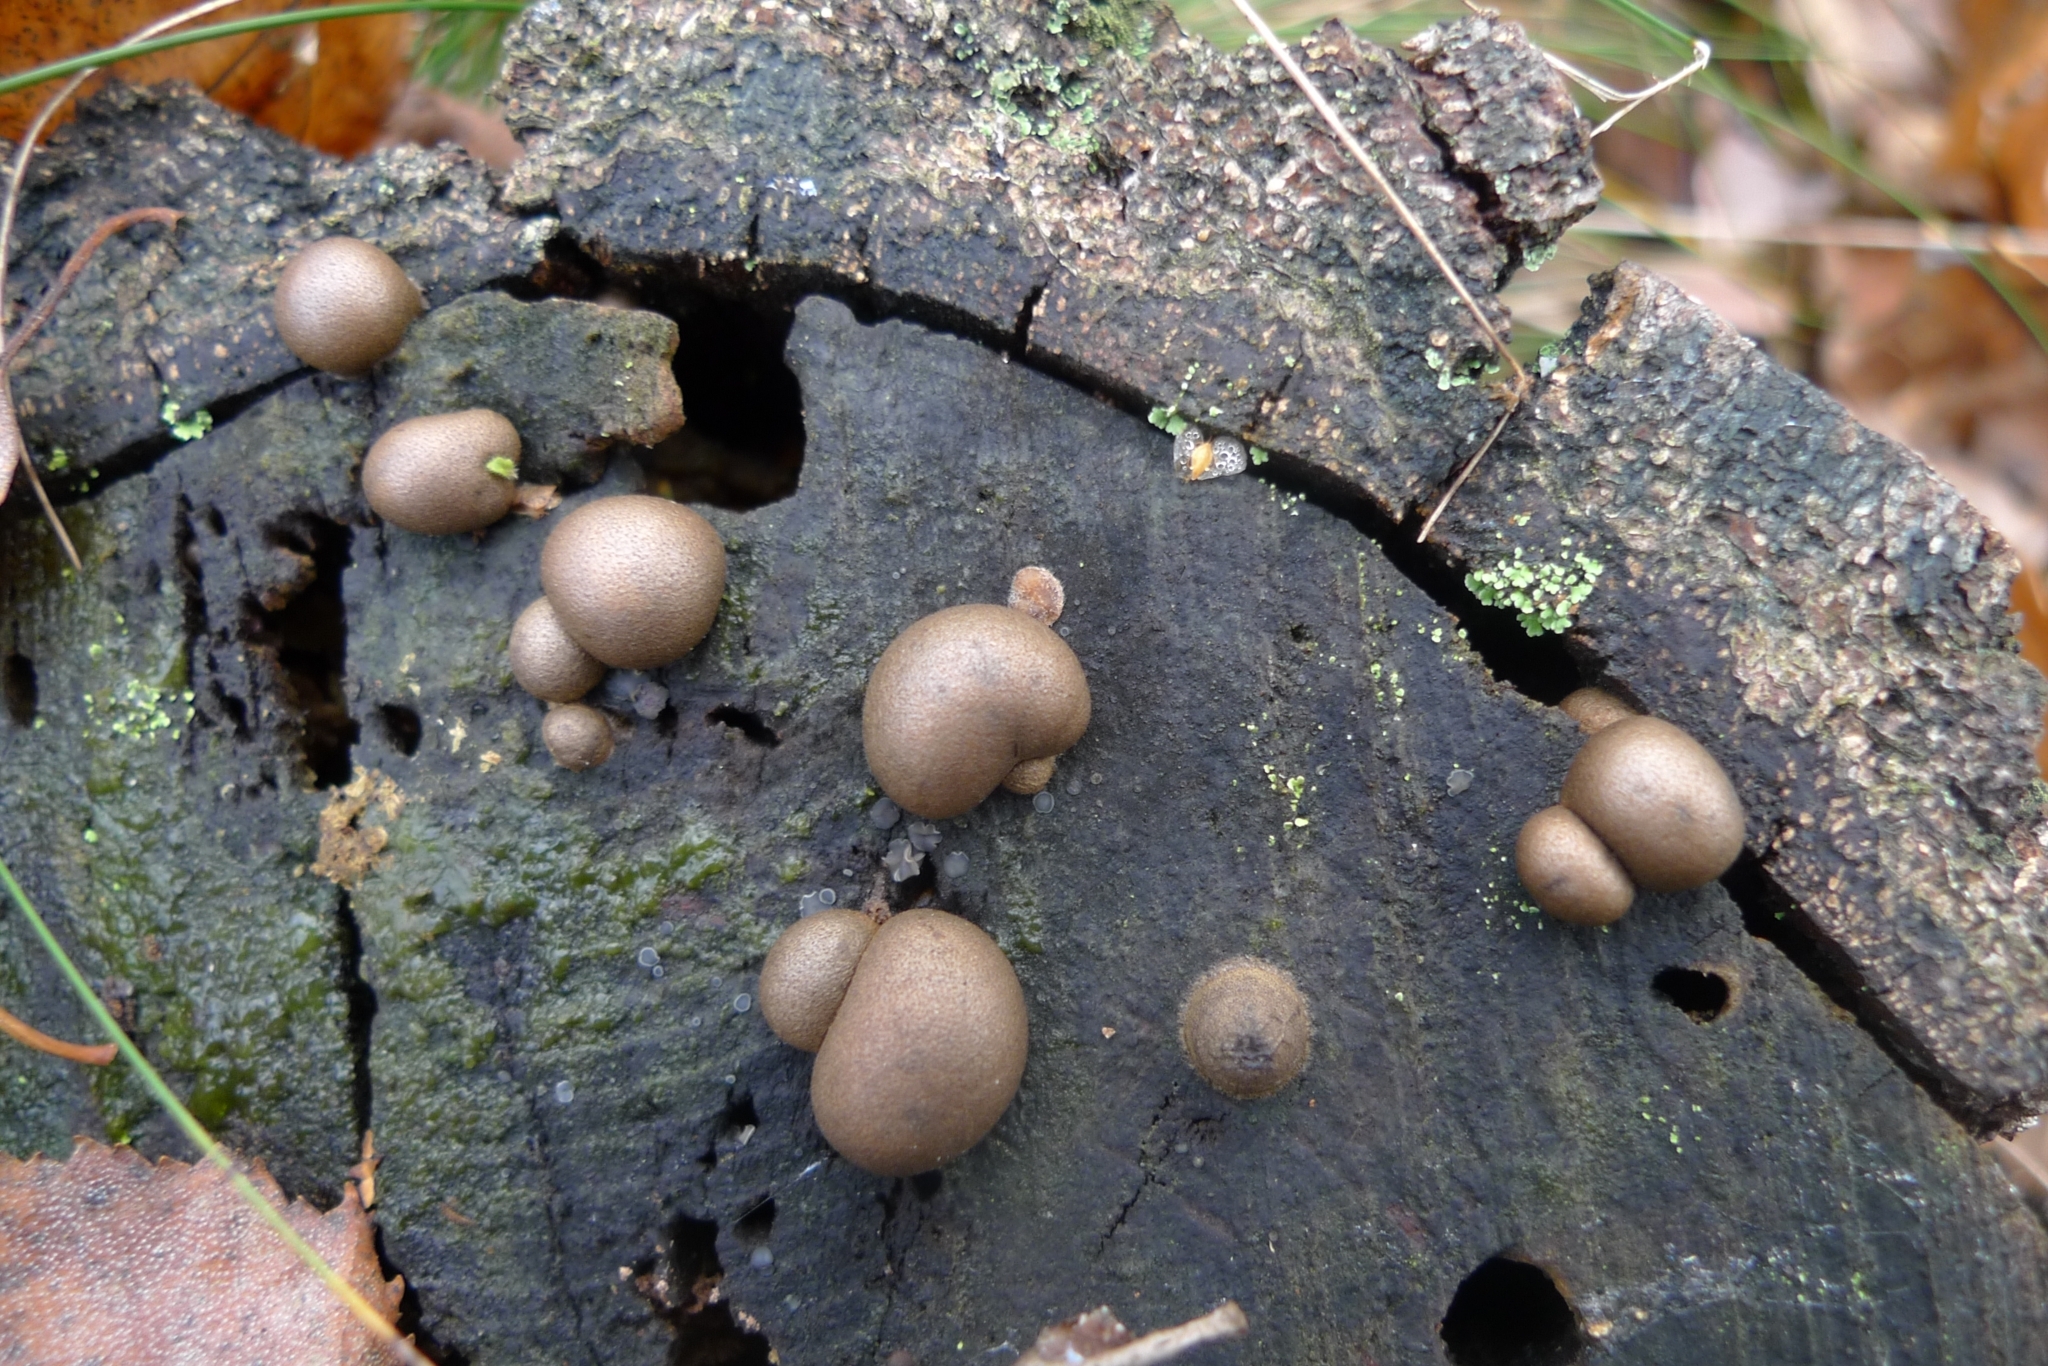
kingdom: Protozoa
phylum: Mycetozoa
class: Myxomycetes
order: Cribrariales
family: Tubiferaceae
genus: Lycogala
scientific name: Lycogala epidendrum
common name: Wolf's milk
